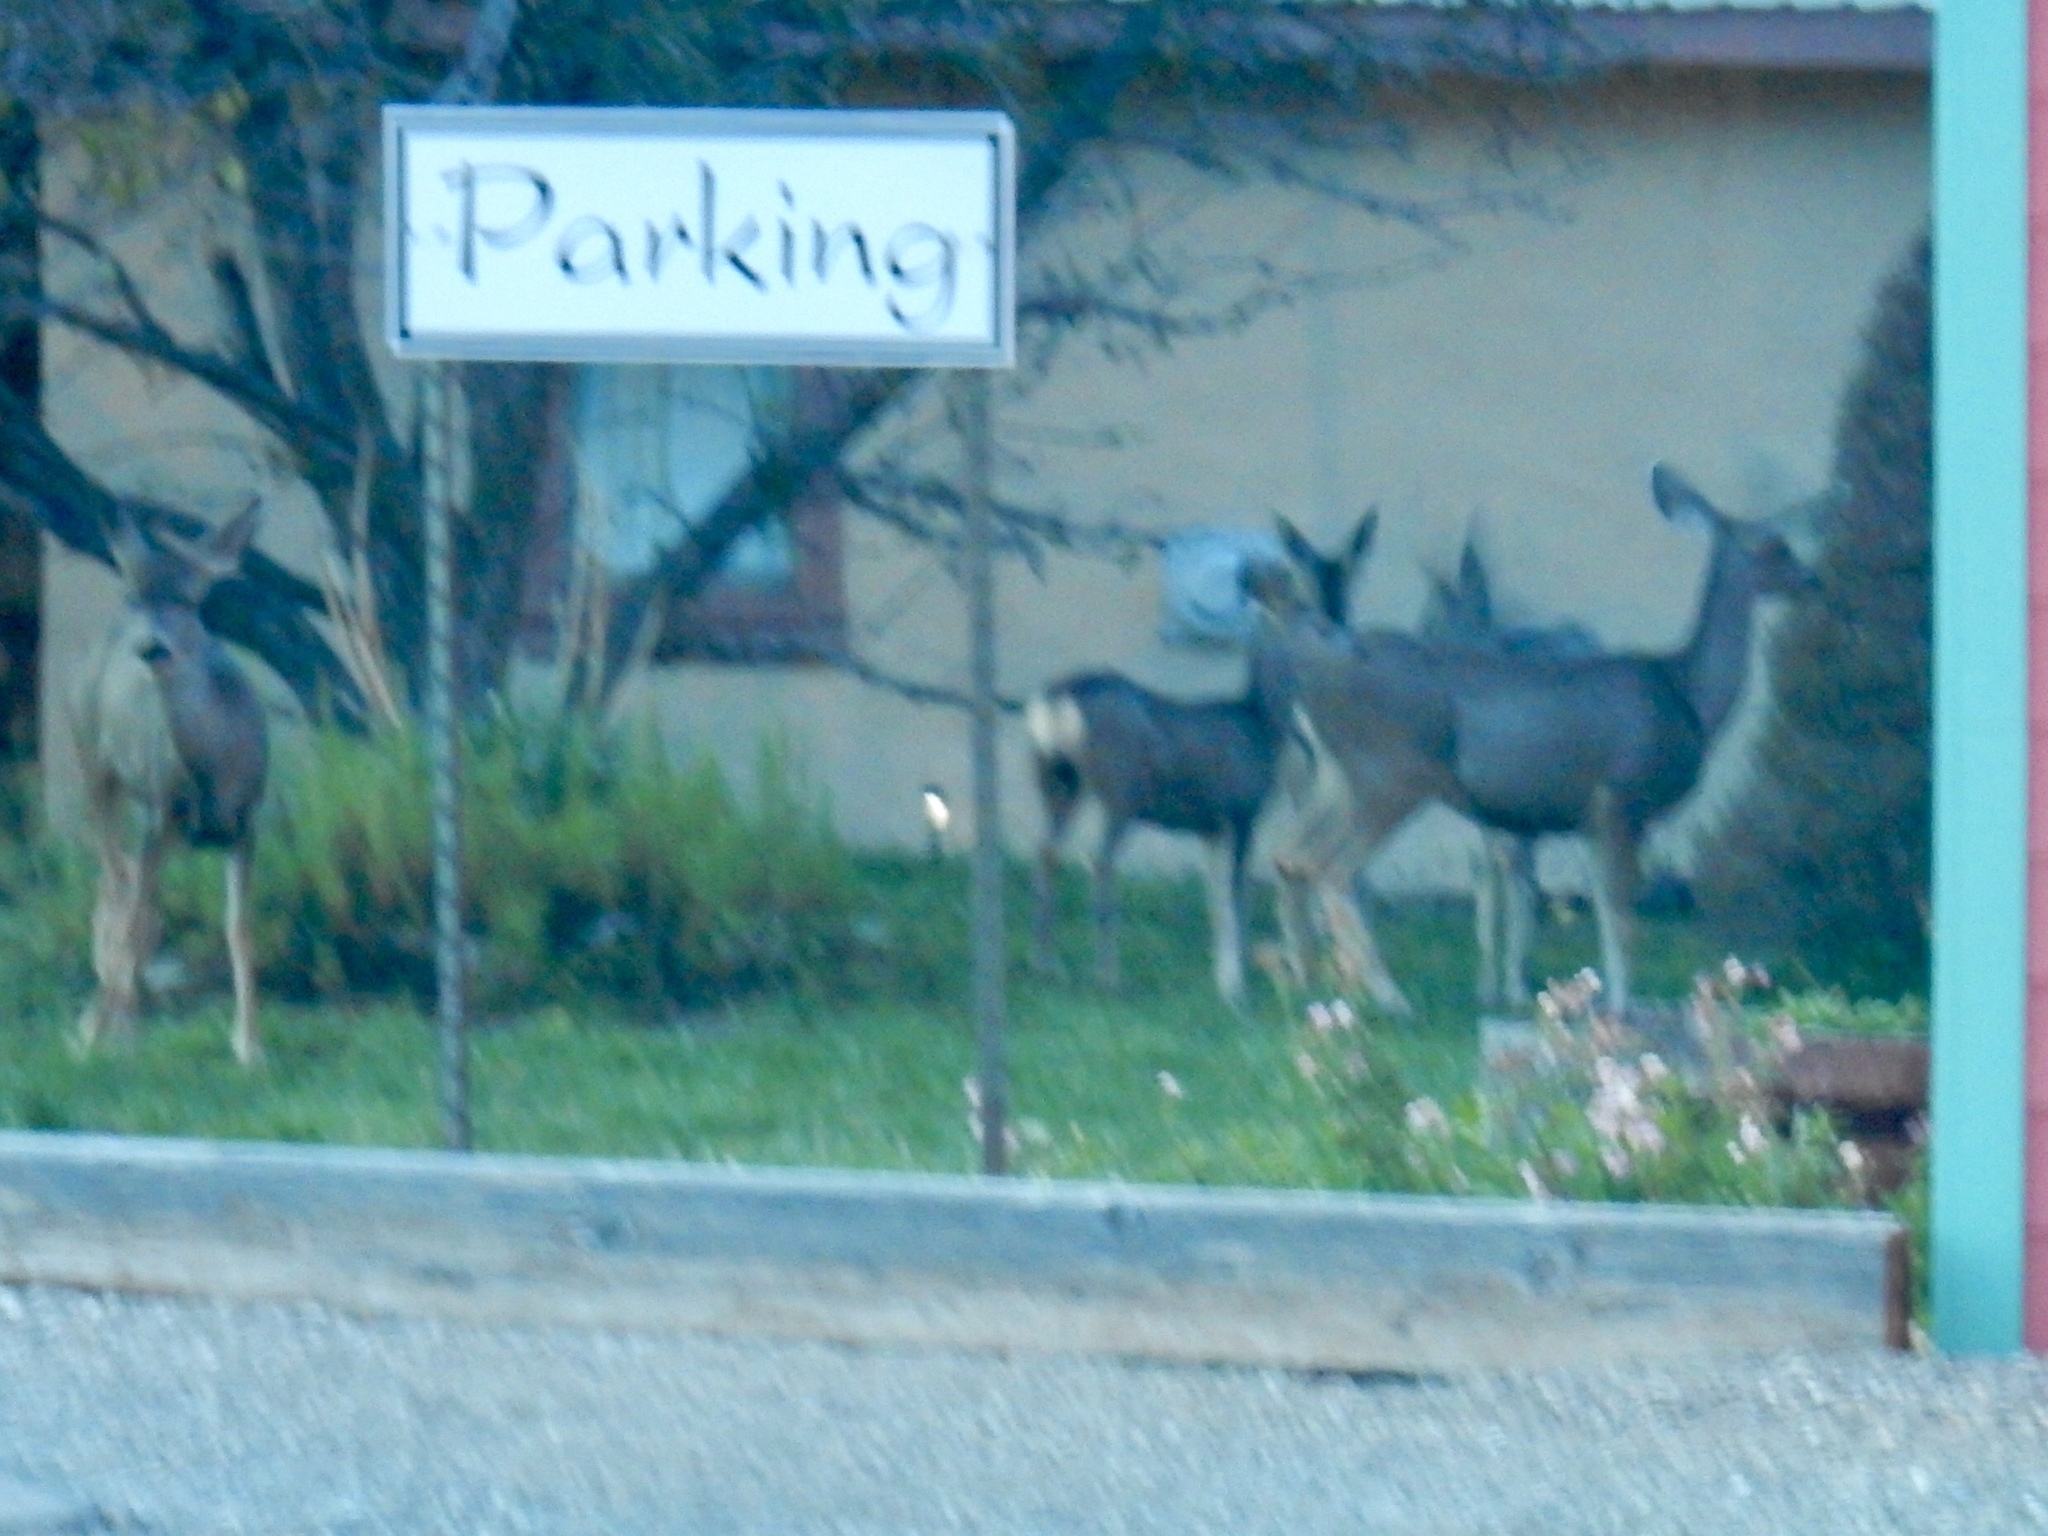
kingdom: Animalia
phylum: Chordata
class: Mammalia
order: Artiodactyla
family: Cervidae
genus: Odocoileus
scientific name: Odocoileus hemionus
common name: Mule deer
